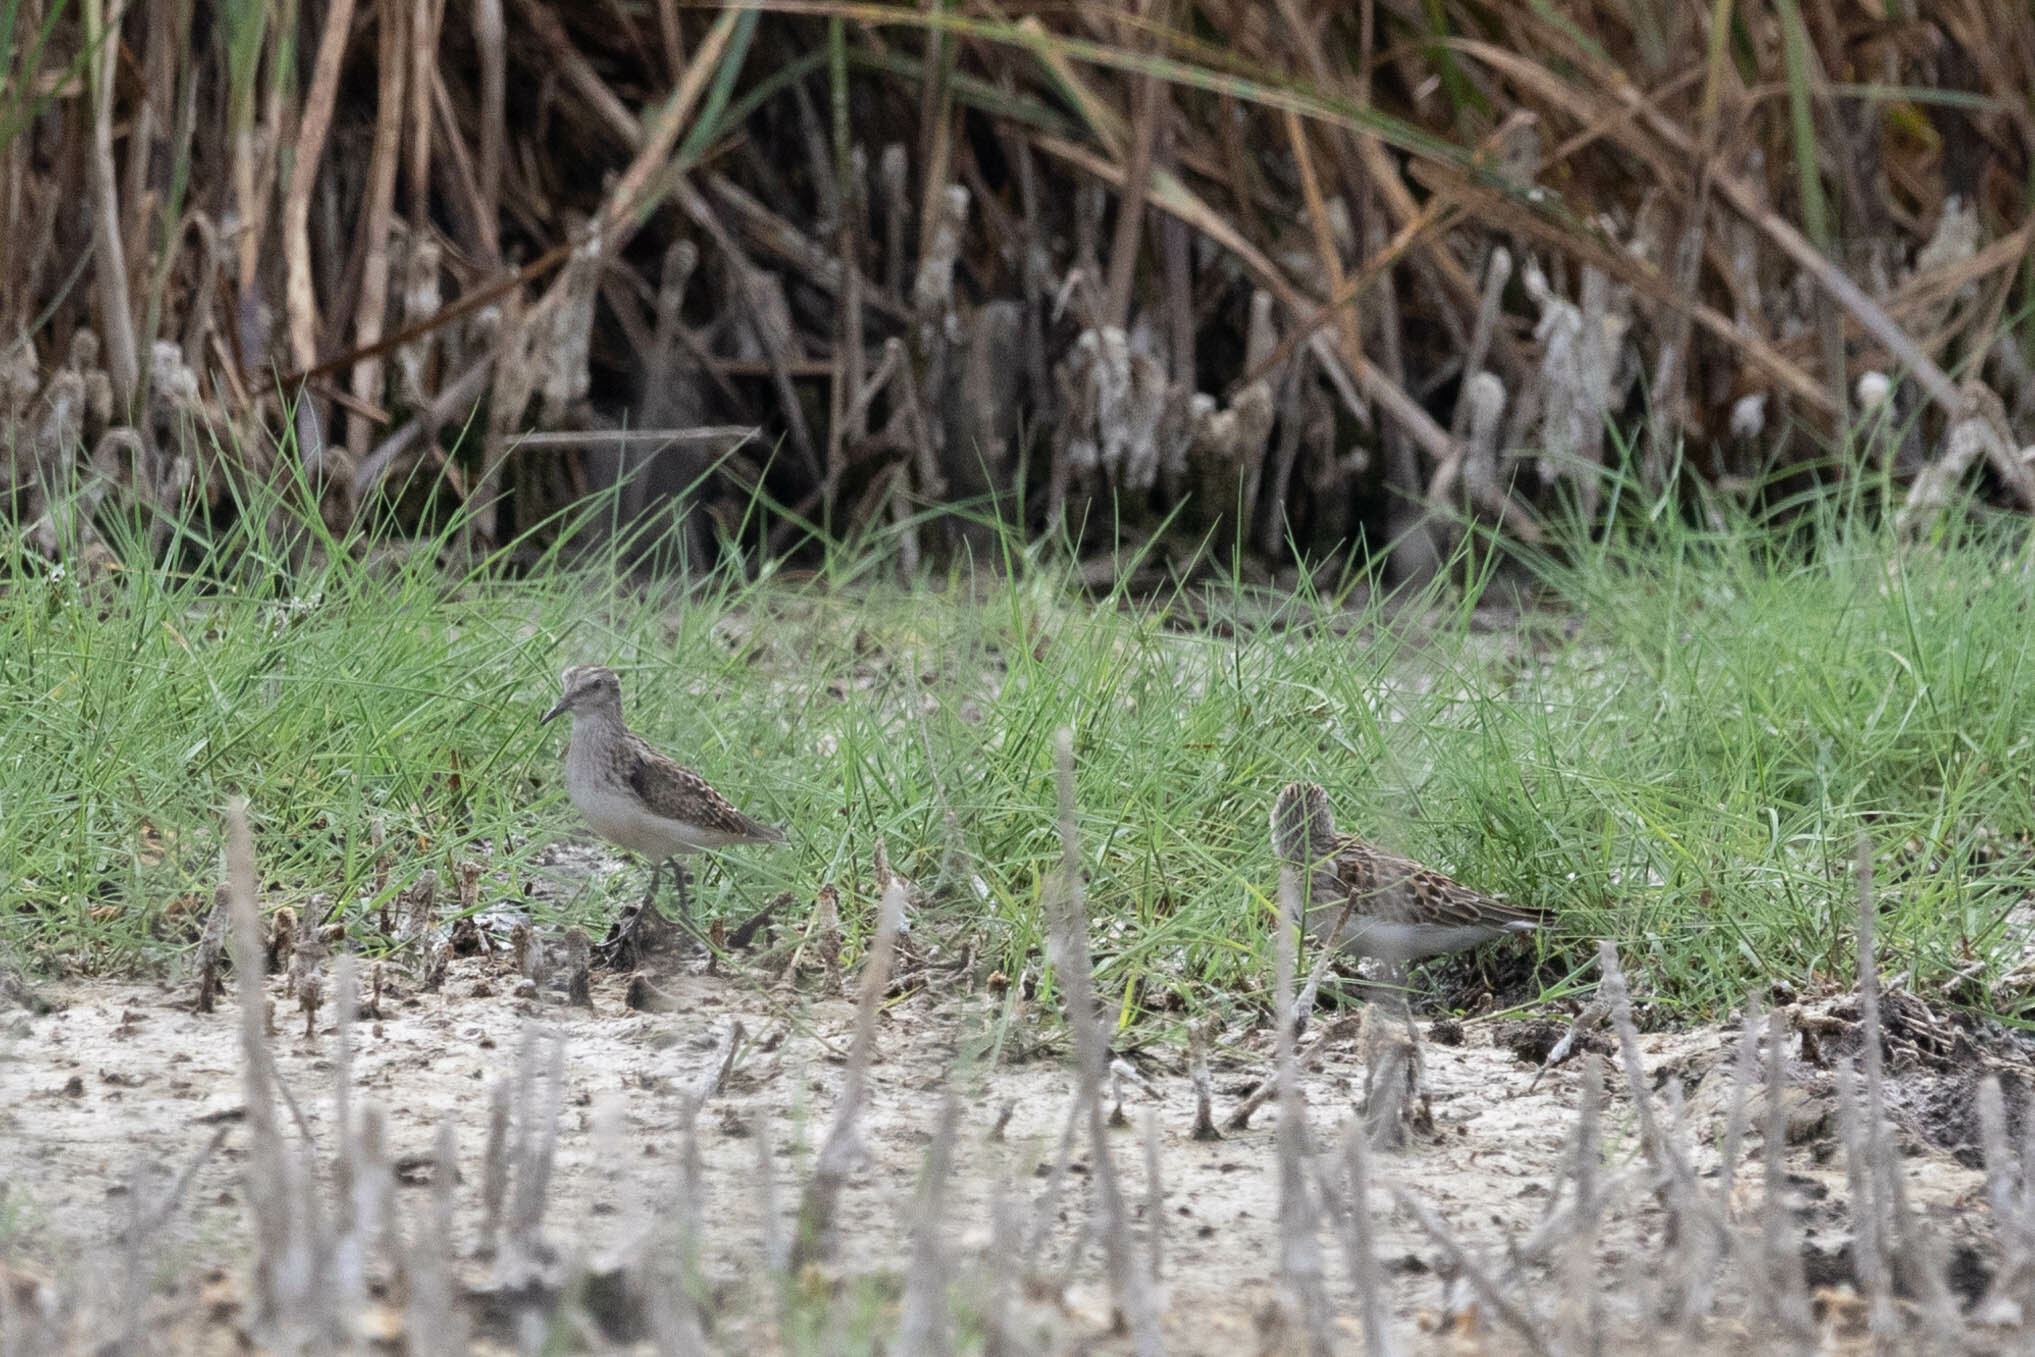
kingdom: Animalia
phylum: Chordata
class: Aves
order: Charadriiformes
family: Scolopacidae
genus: Calidris
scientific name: Calidris minutilla
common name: Least sandpiper
